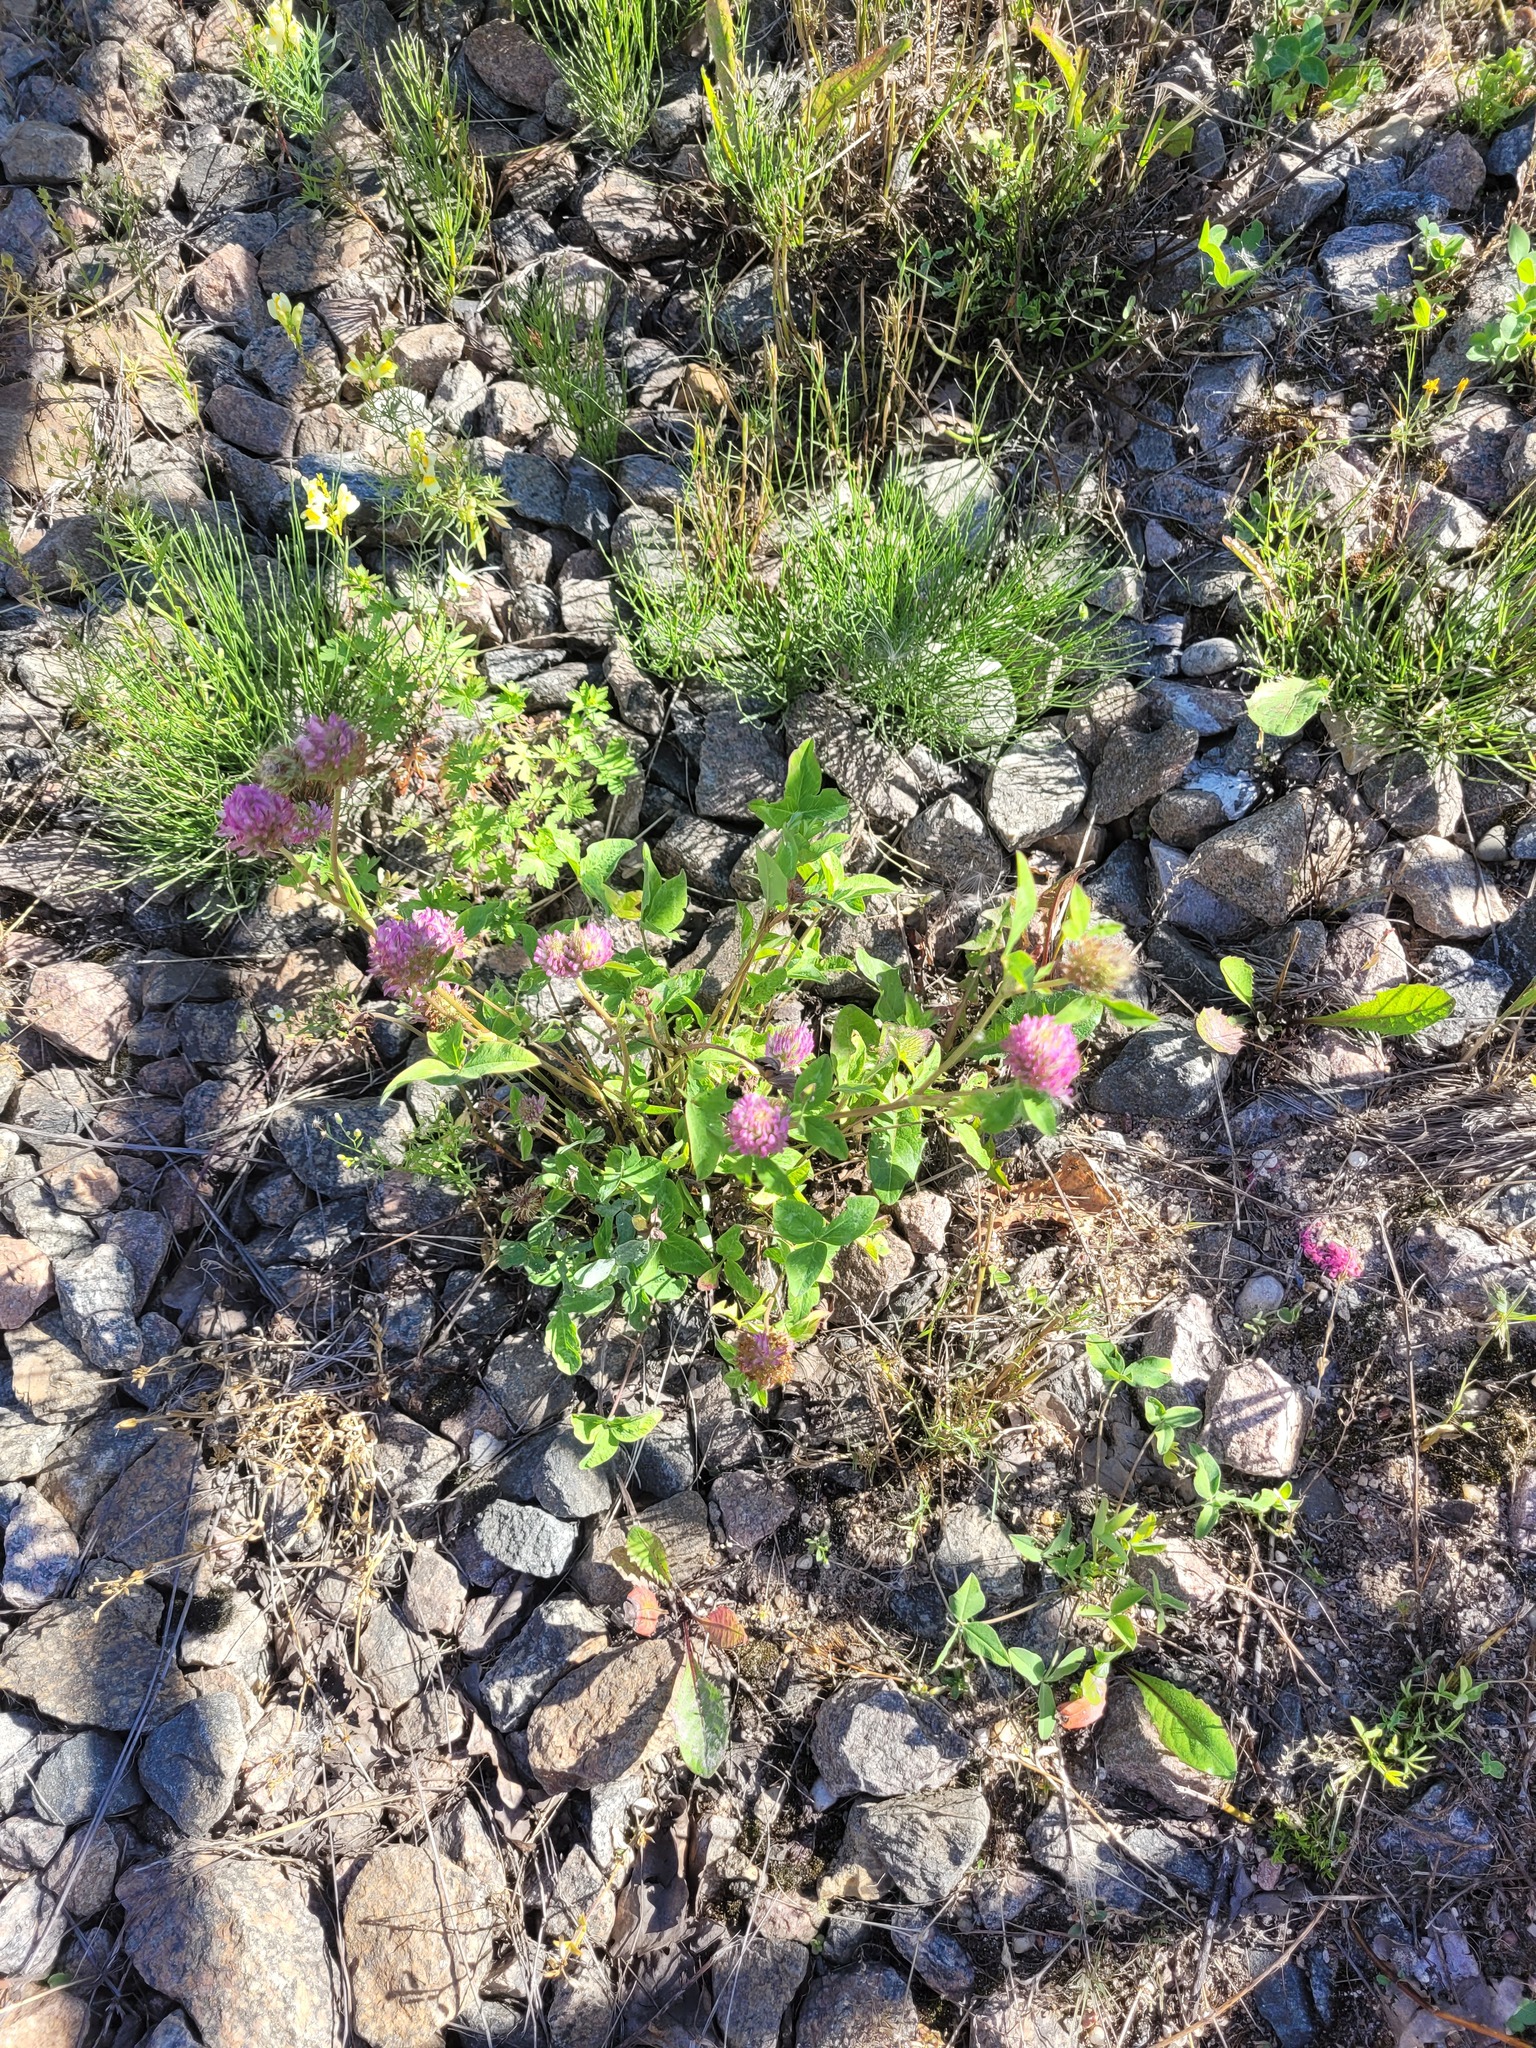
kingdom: Plantae
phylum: Tracheophyta
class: Magnoliopsida
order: Fabales
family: Fabaceae
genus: Trifolium
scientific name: Trifolium pratense
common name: Red clover
